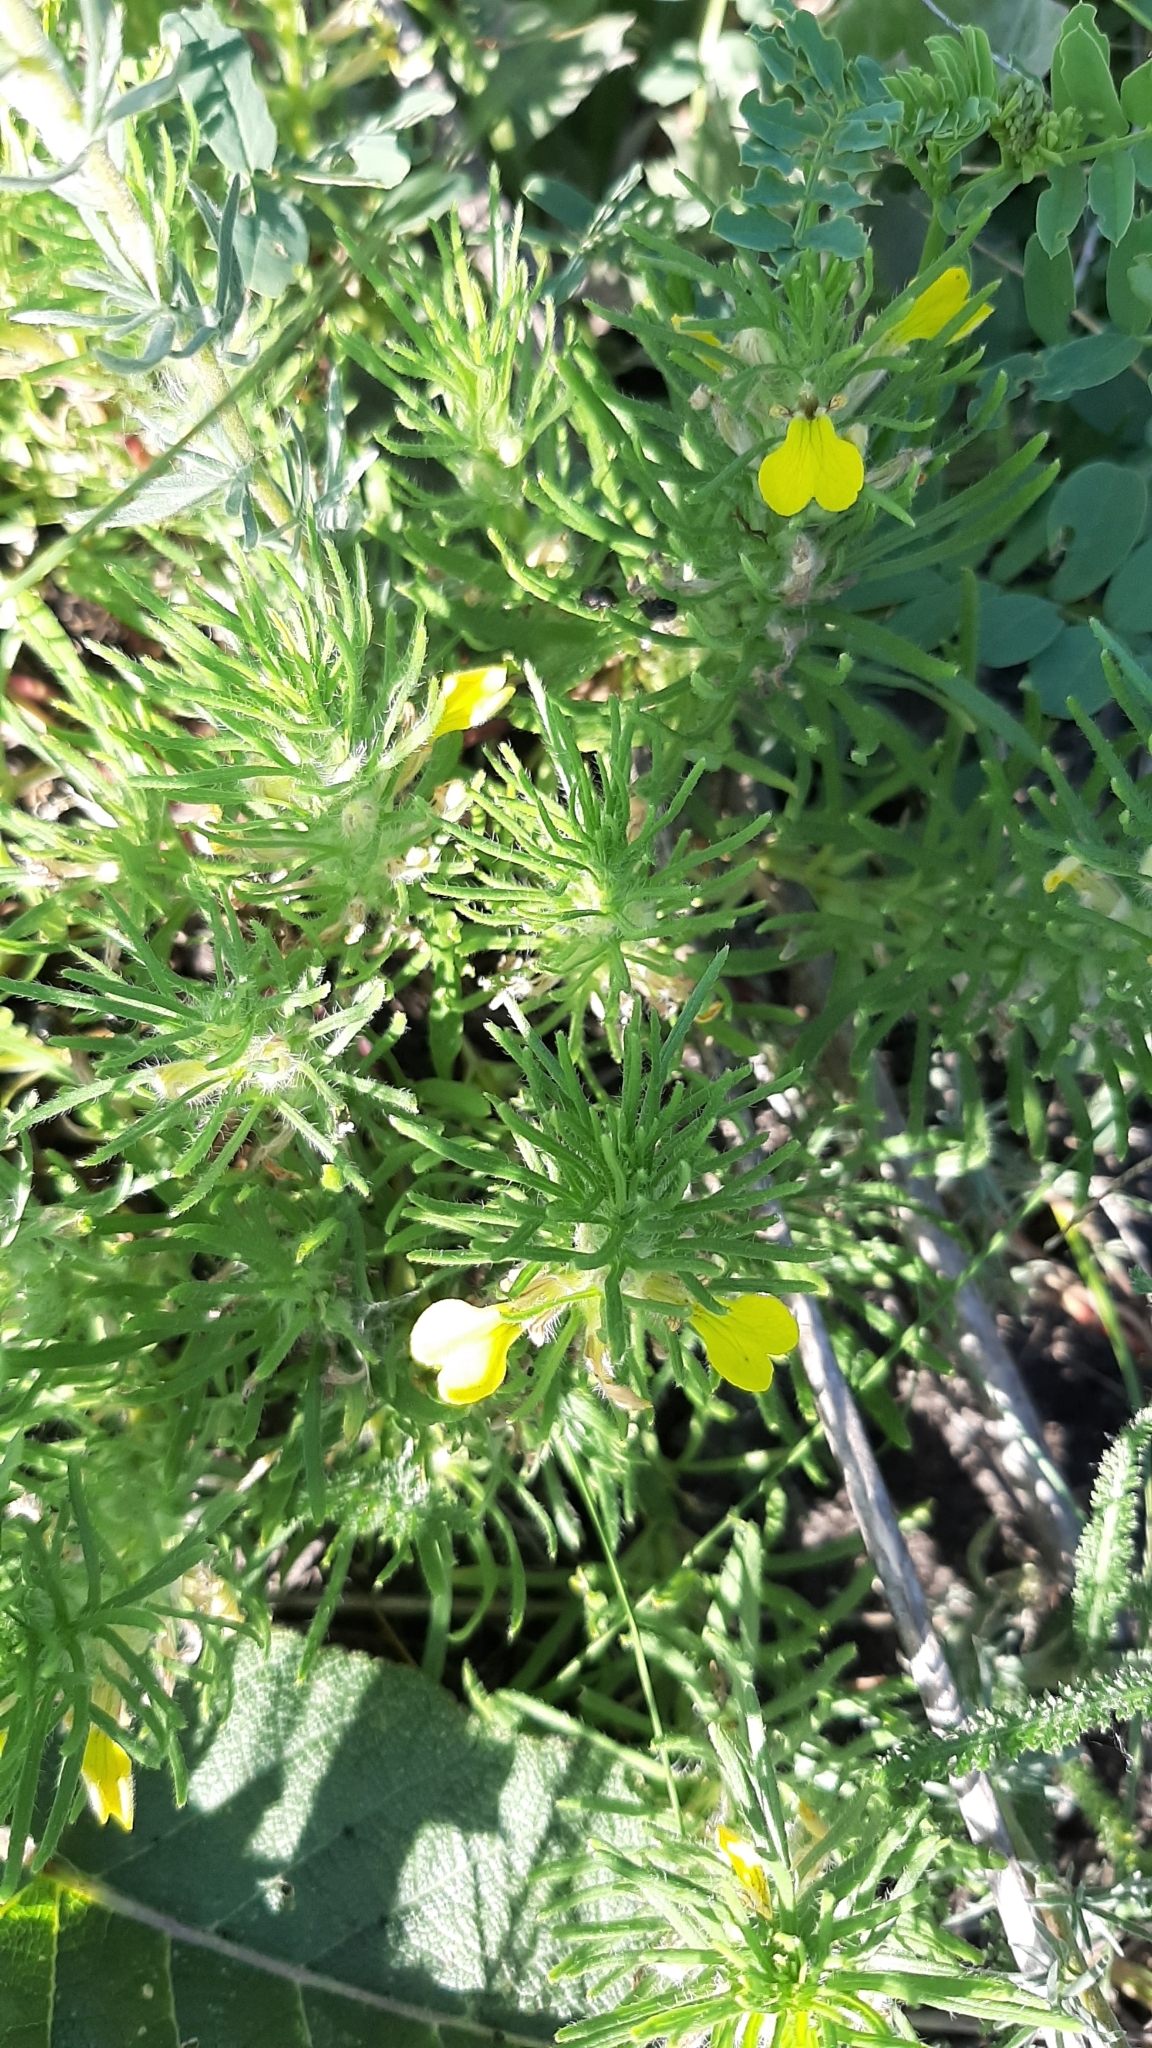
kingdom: Plantae
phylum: Tracheophyta
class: Magnoliopsida
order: Lamiales
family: Lamiaceae
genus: Ajuga
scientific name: Ajuga chamaepitys
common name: Ground-pine
